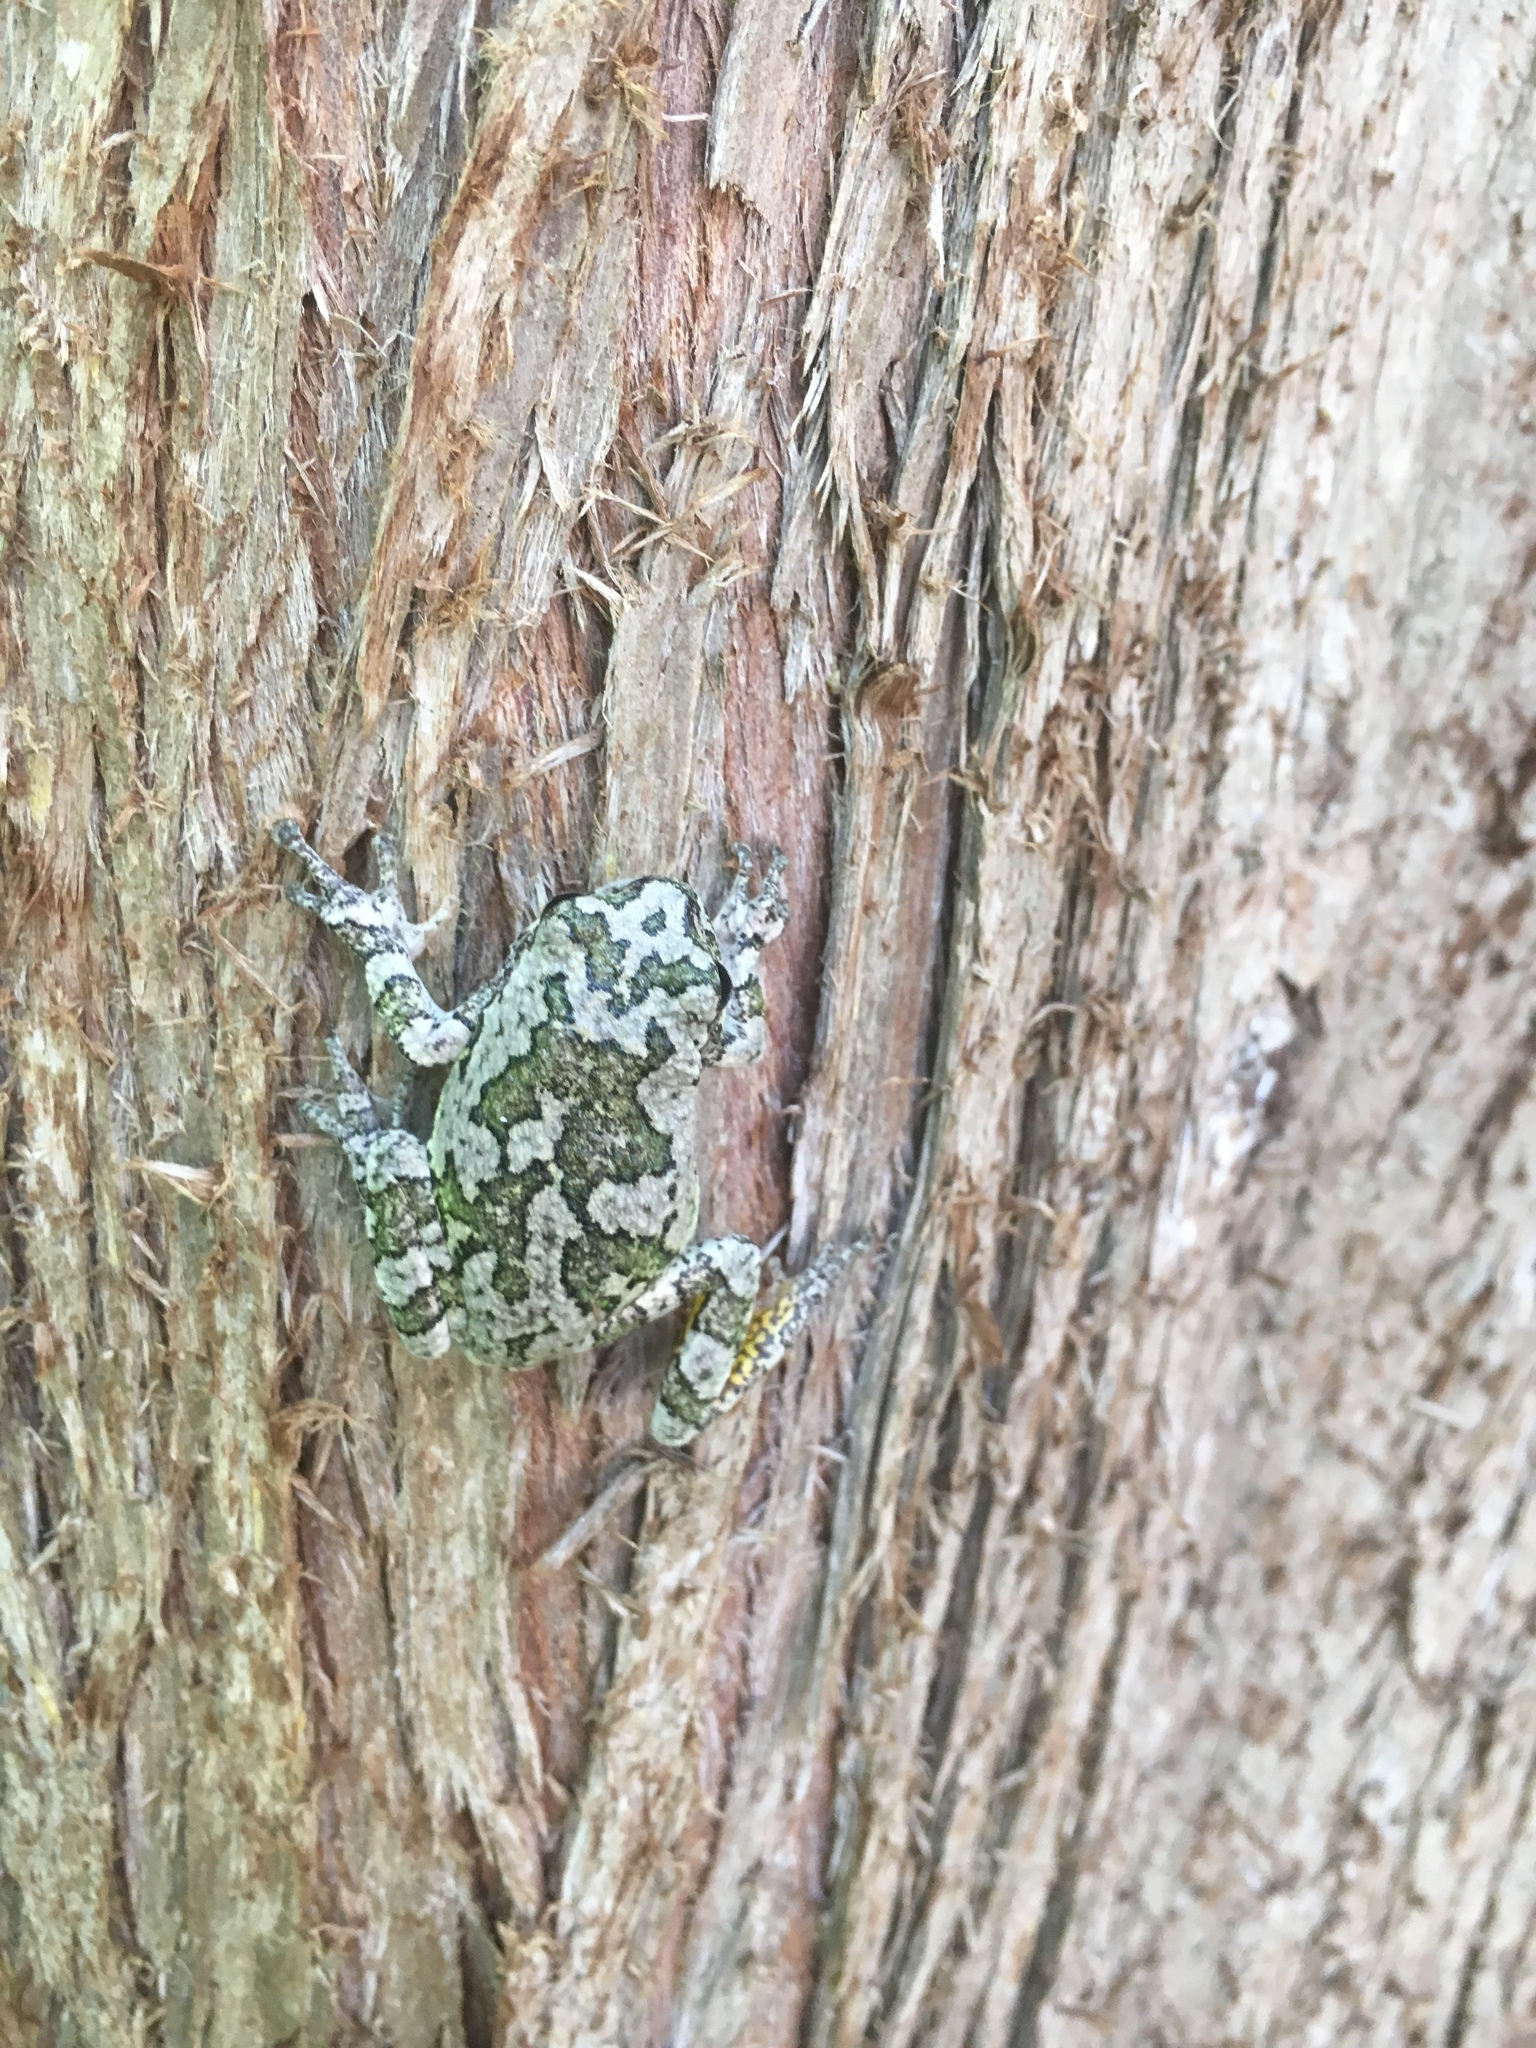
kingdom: Animalia
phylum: Chordata
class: Amphibia
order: Anura
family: Hylidae
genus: Hyla
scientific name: Hyla
